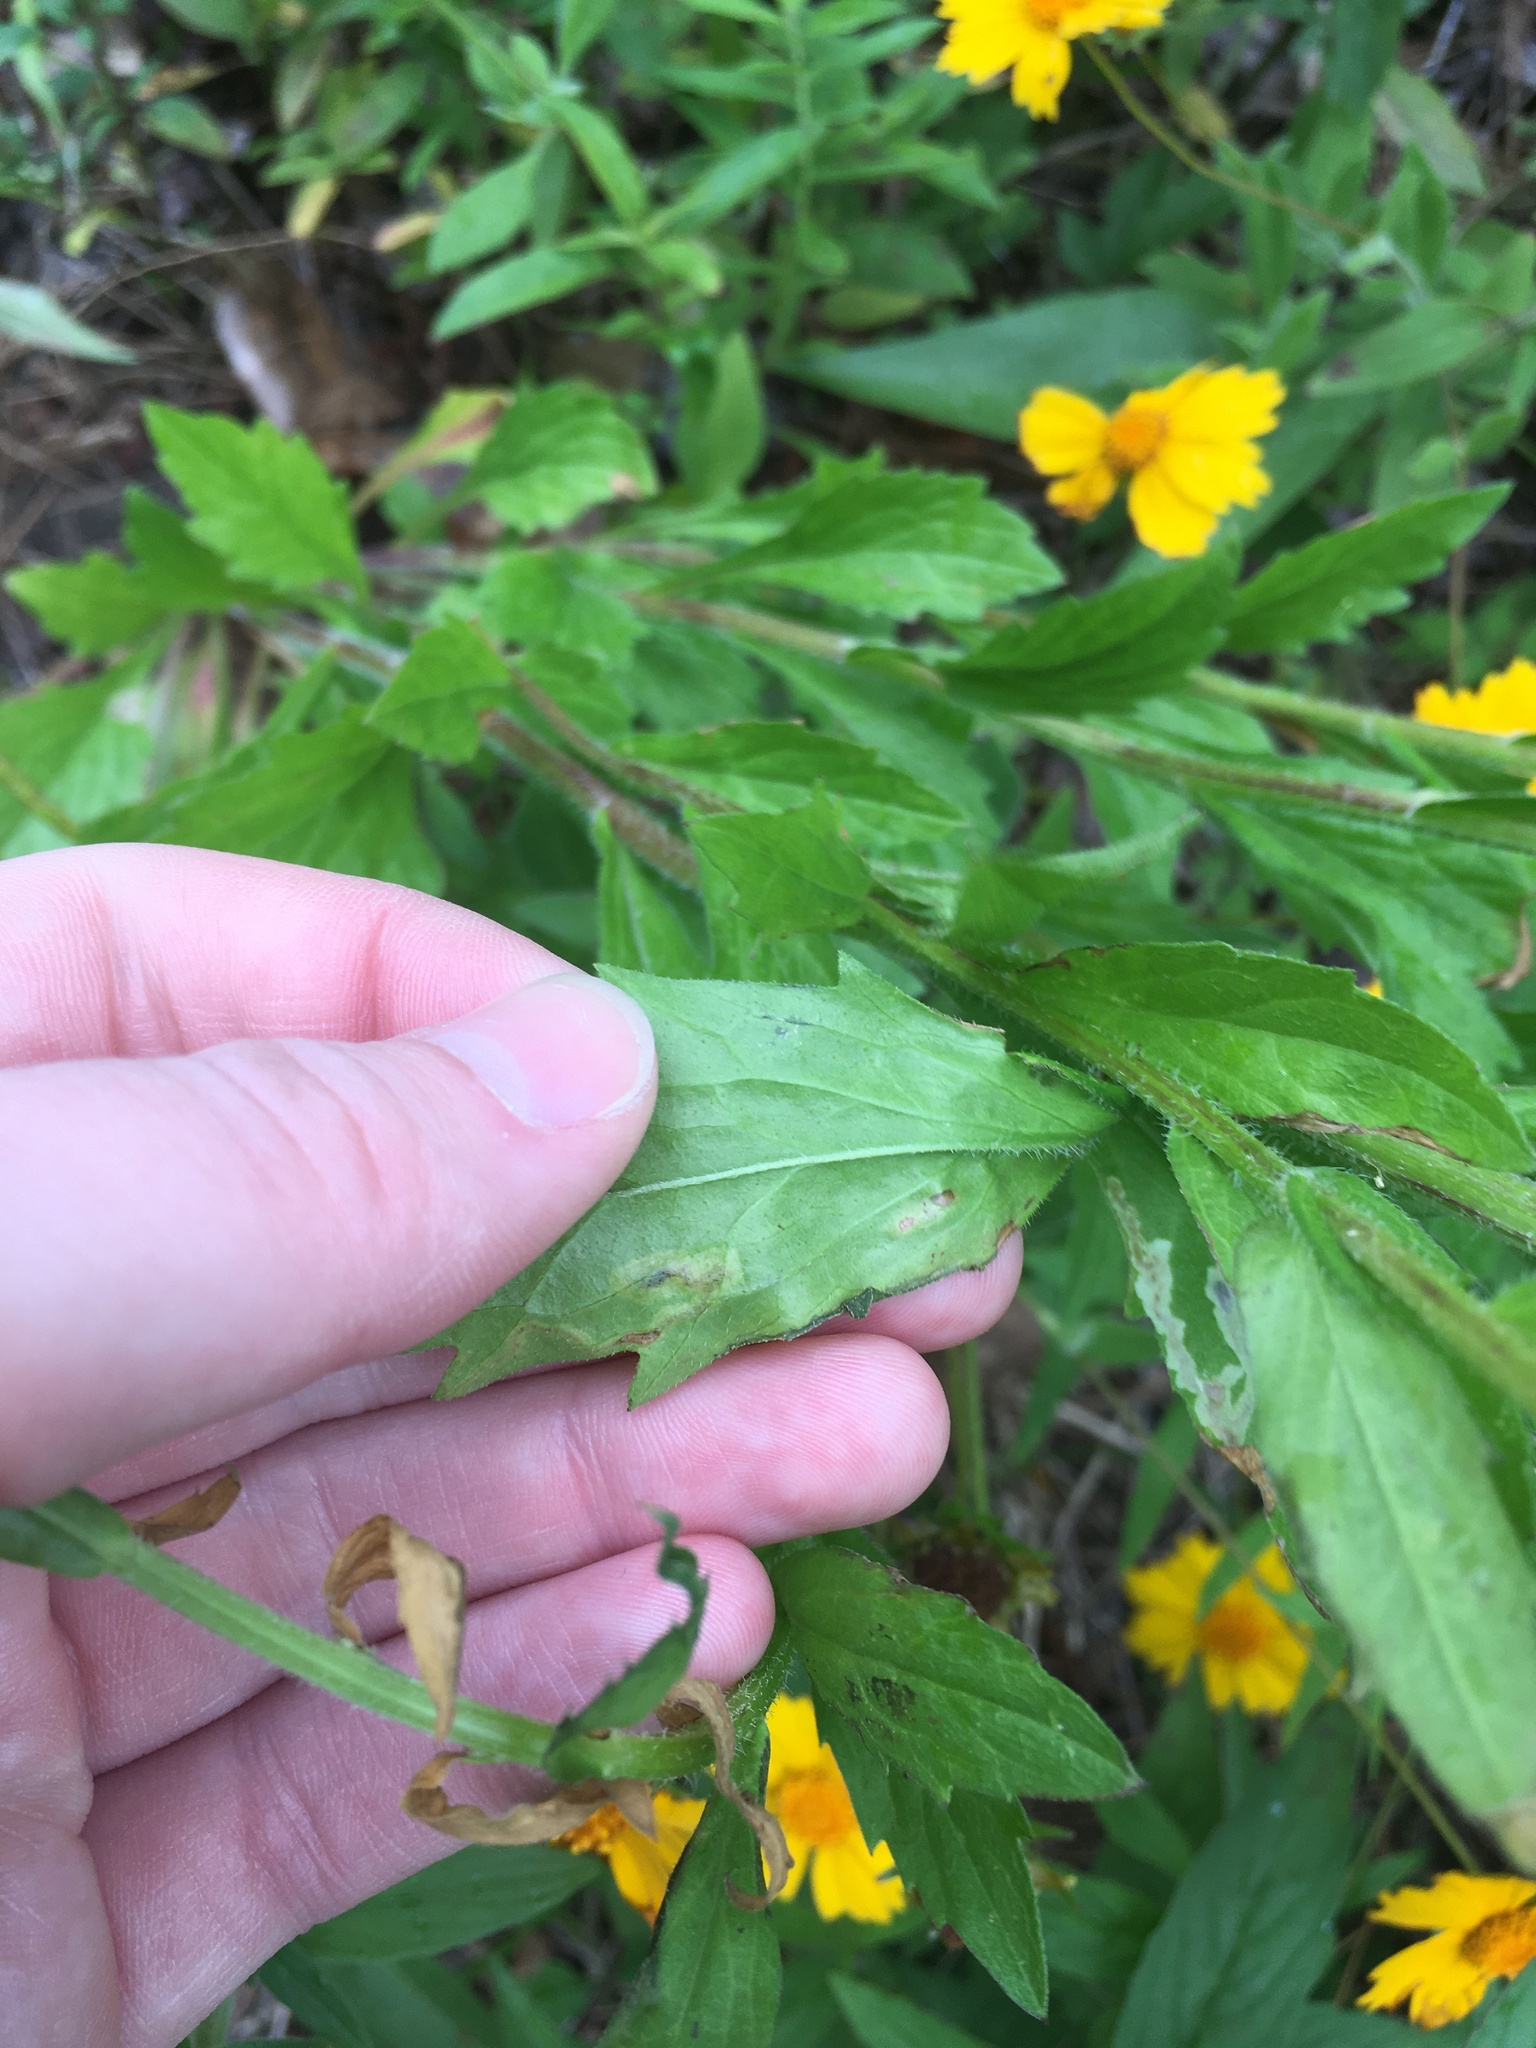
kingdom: Animalia
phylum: Arthropoda
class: Insecta
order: Diptera
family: Agromyzidae
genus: Calycomyza
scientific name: Calycomyza humeralis
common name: Aster leafminer
